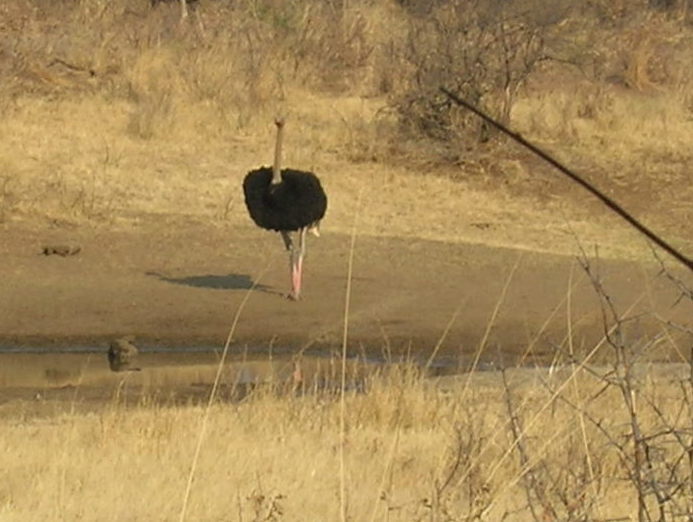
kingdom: Animalia
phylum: Chordata
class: Aves
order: Struthioniformes
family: Struthionidae
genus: Struthio
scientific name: Struthio camelus
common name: Common ostrich
